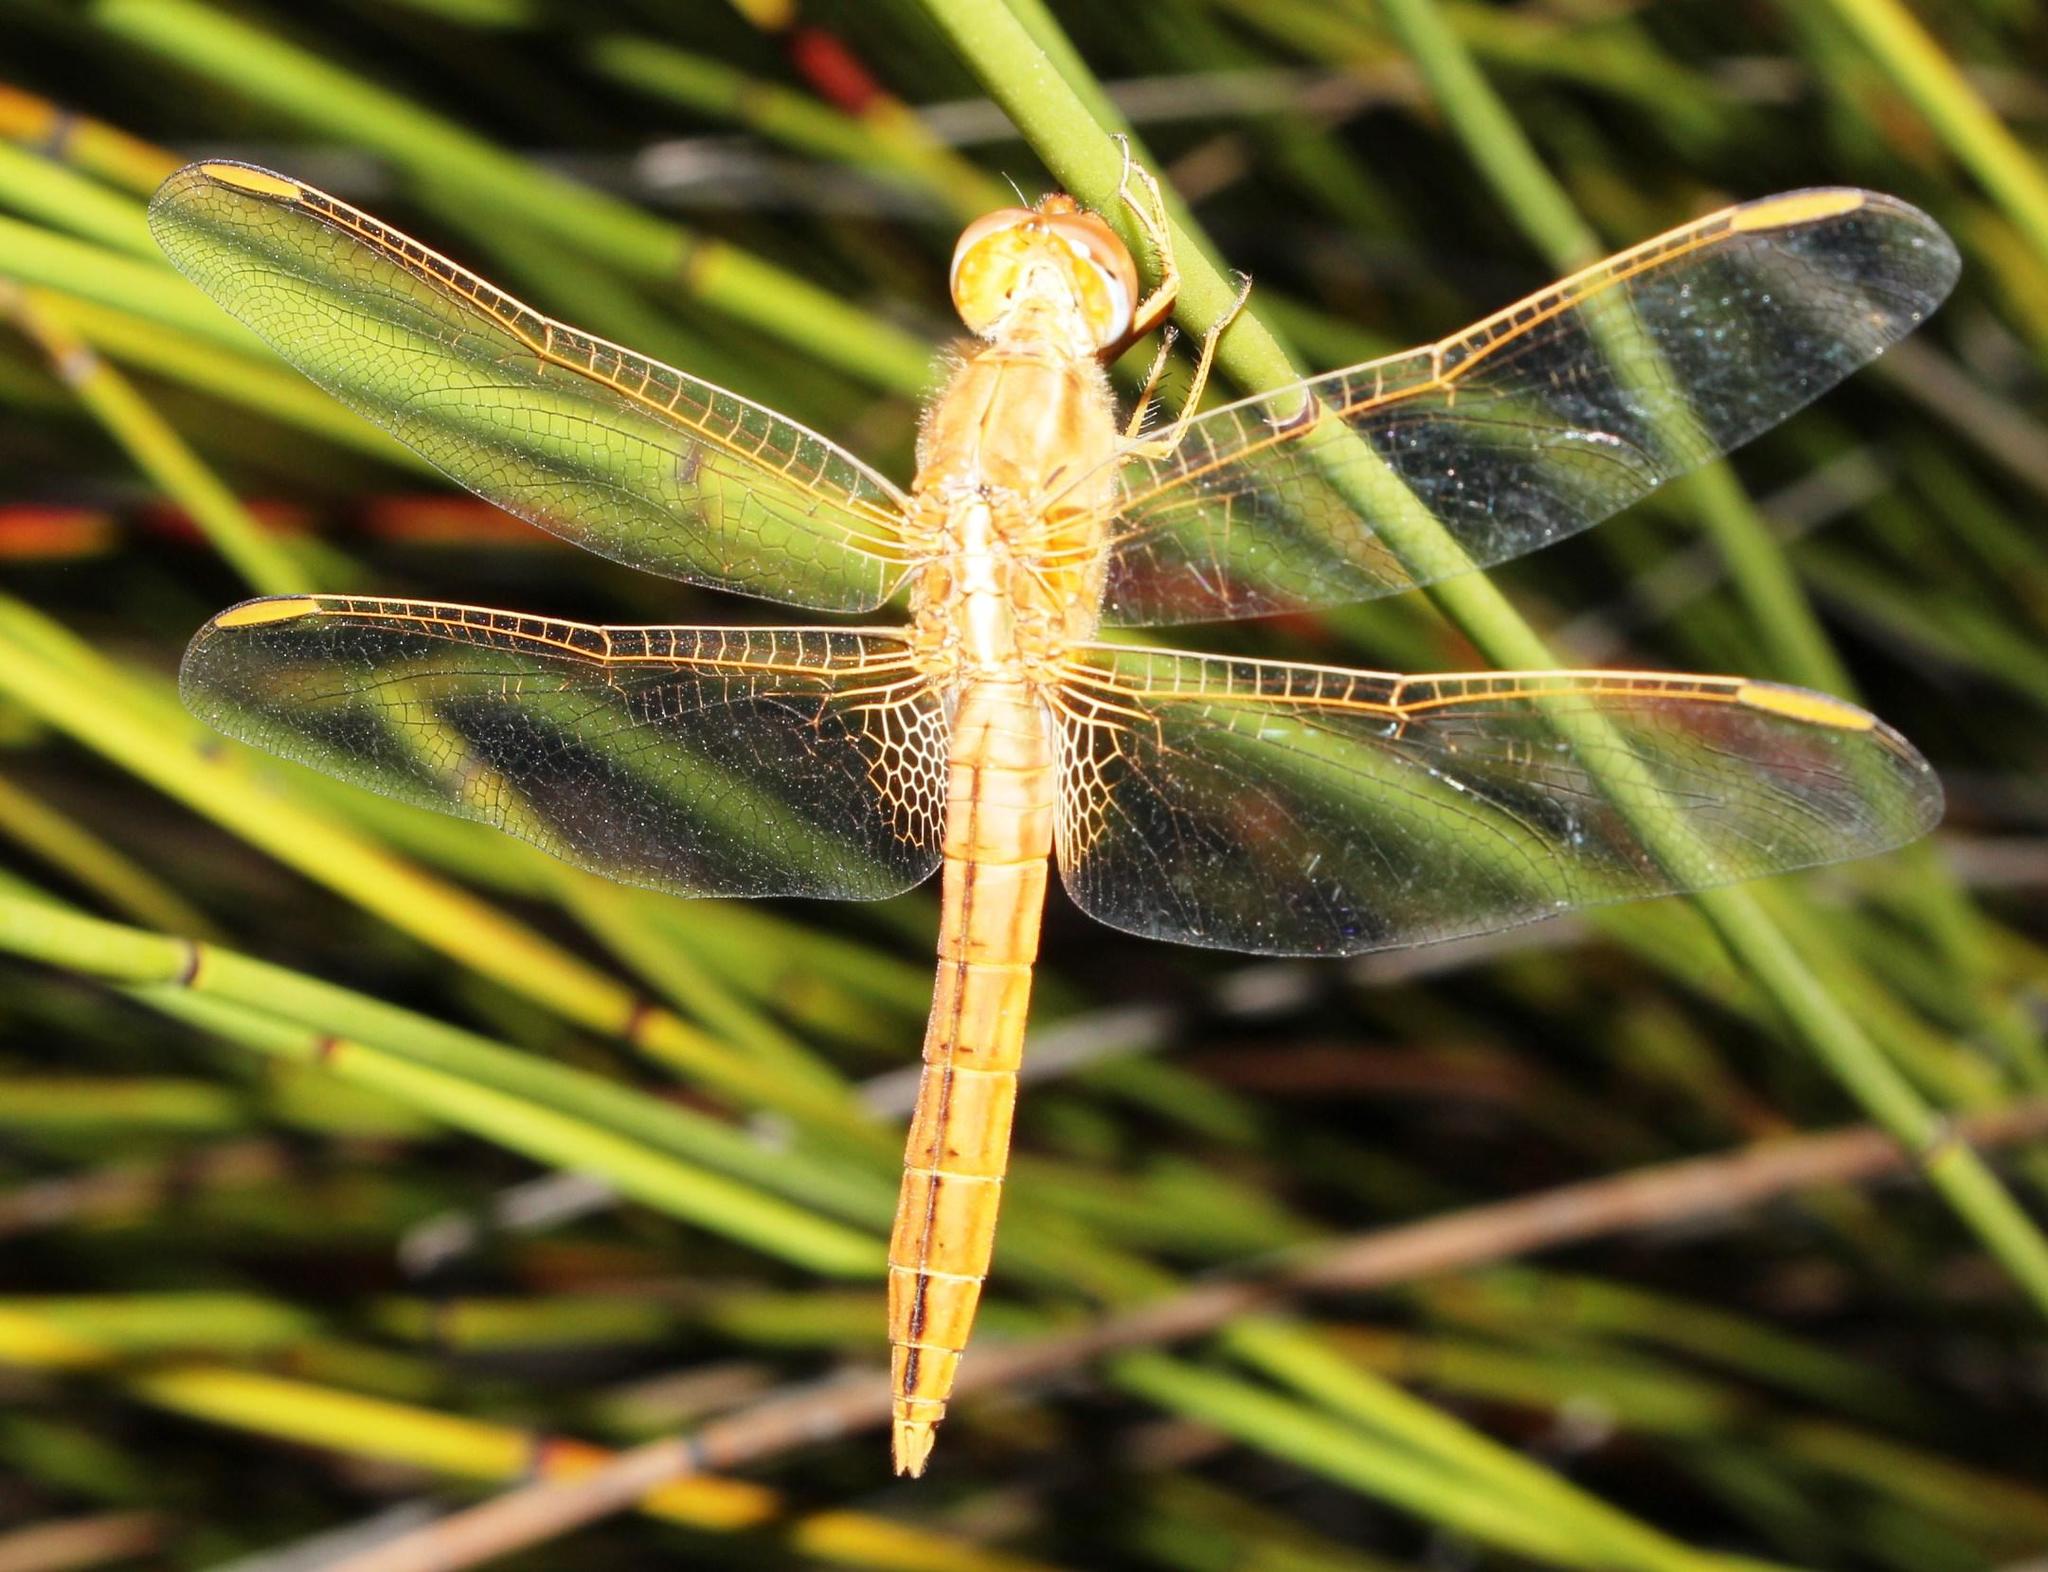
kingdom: Animalia
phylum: Arthropoda
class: Insecta
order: Odonata
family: Libellulidae
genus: Crocothemis
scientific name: Crocothemis erythraea
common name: Scarlet dragonfly
